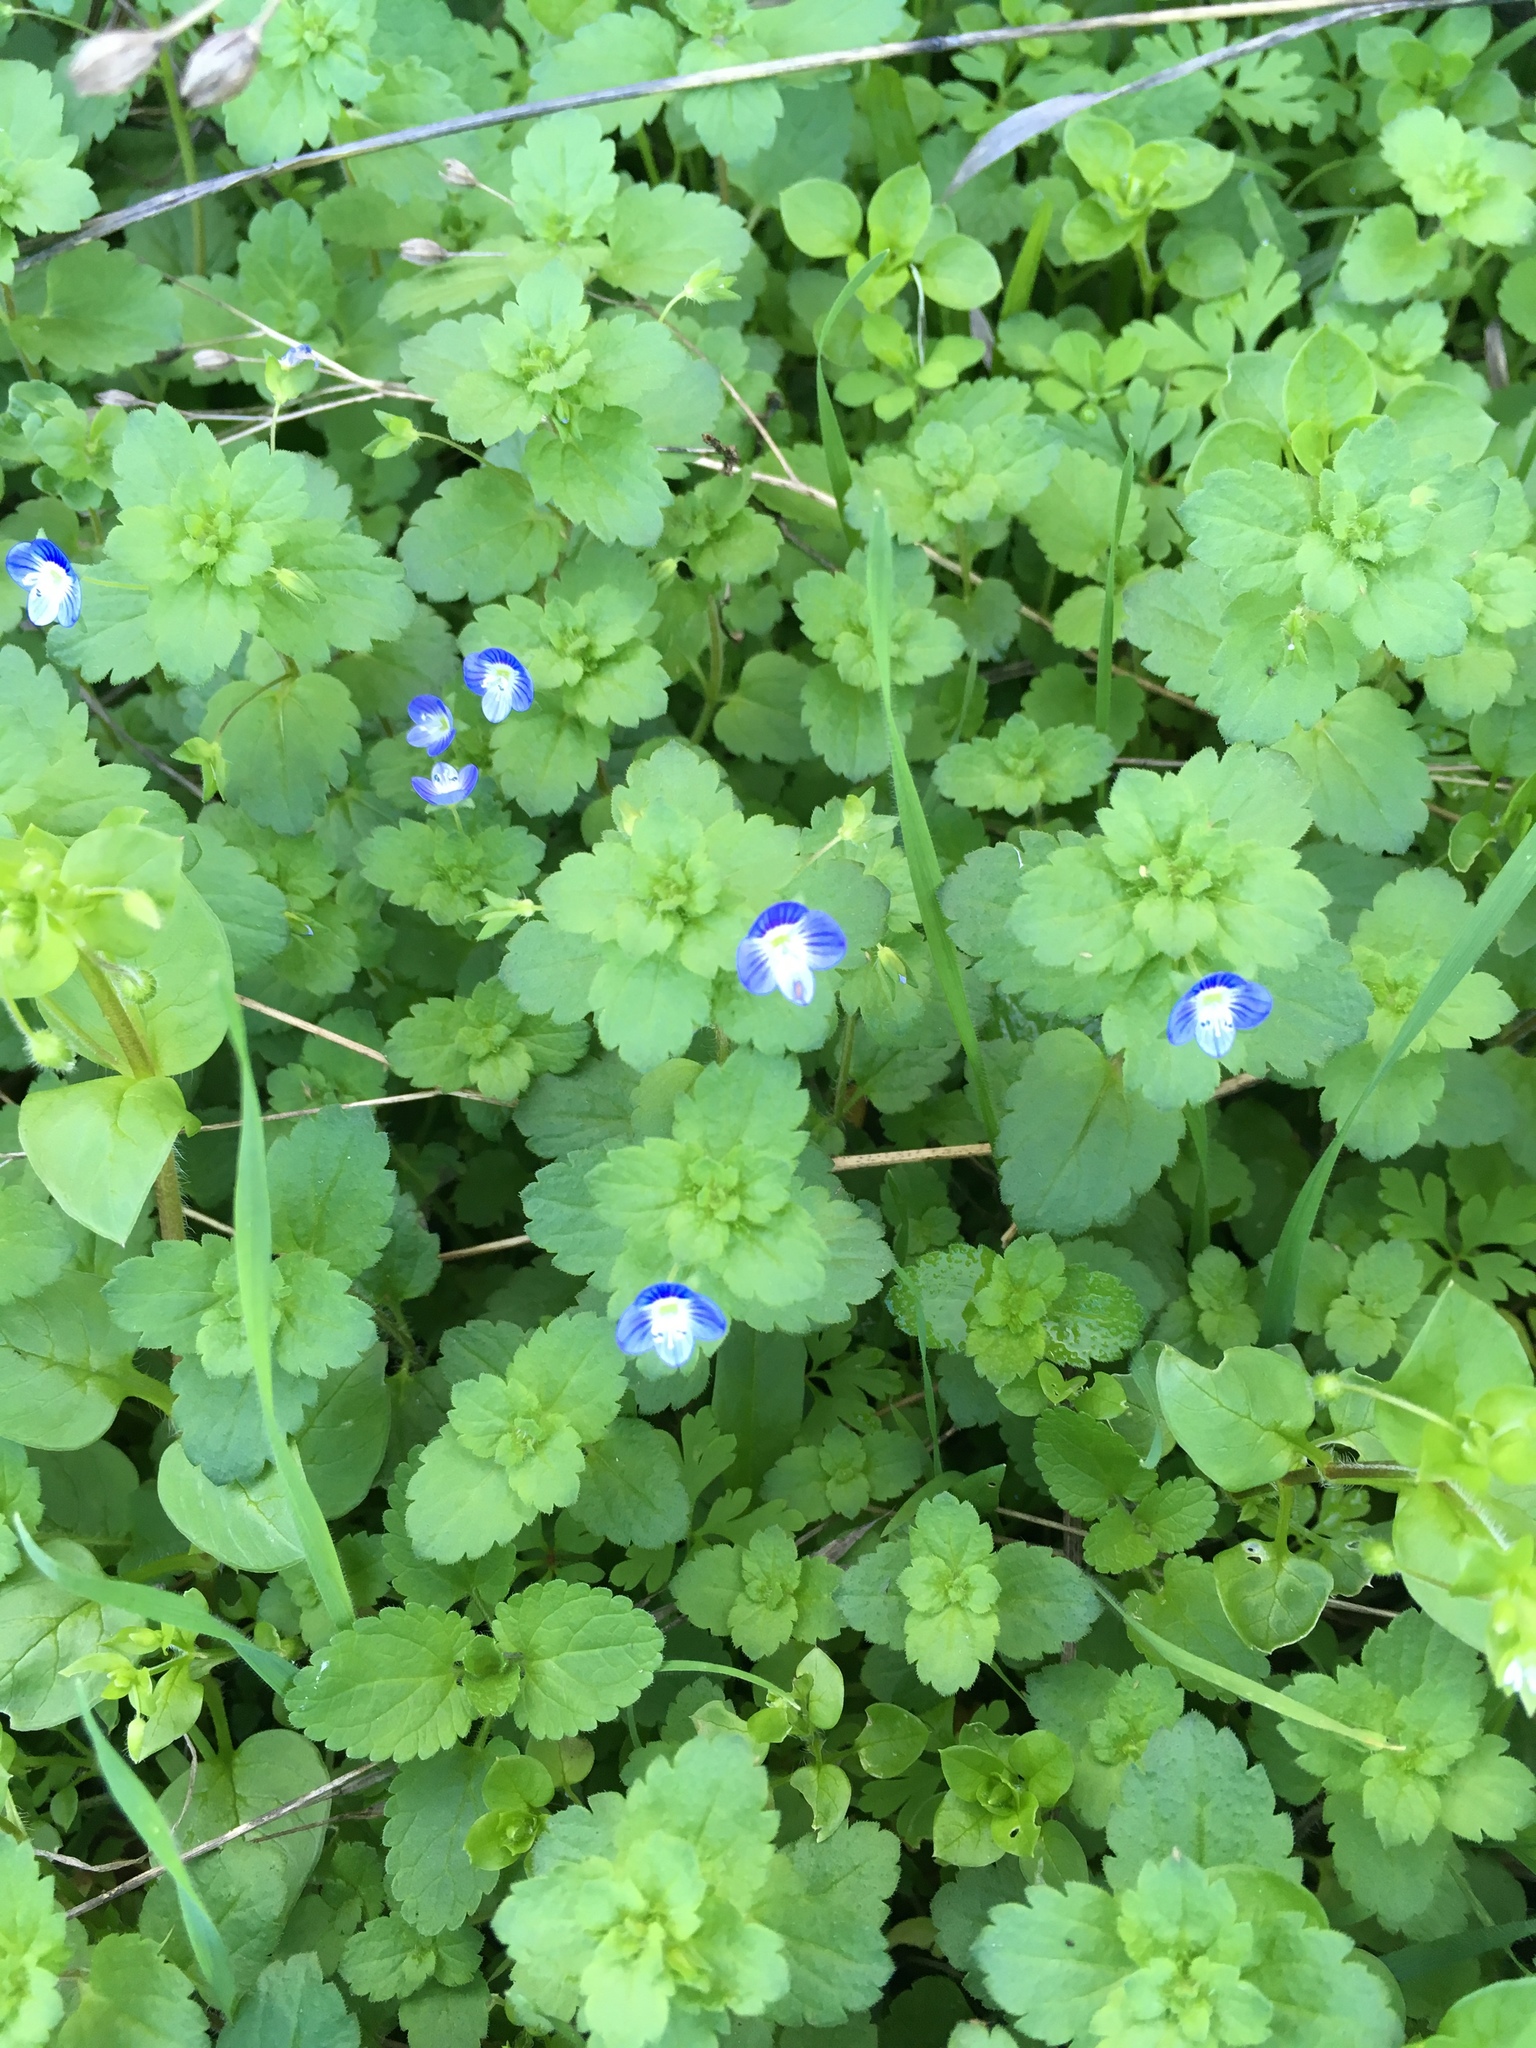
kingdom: Plantae
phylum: Tracheophyta
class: Magnoliopsida
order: Lamiales
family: Plantaginaceae
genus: Veronica
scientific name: Veronica persica
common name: Common field-speedwell
